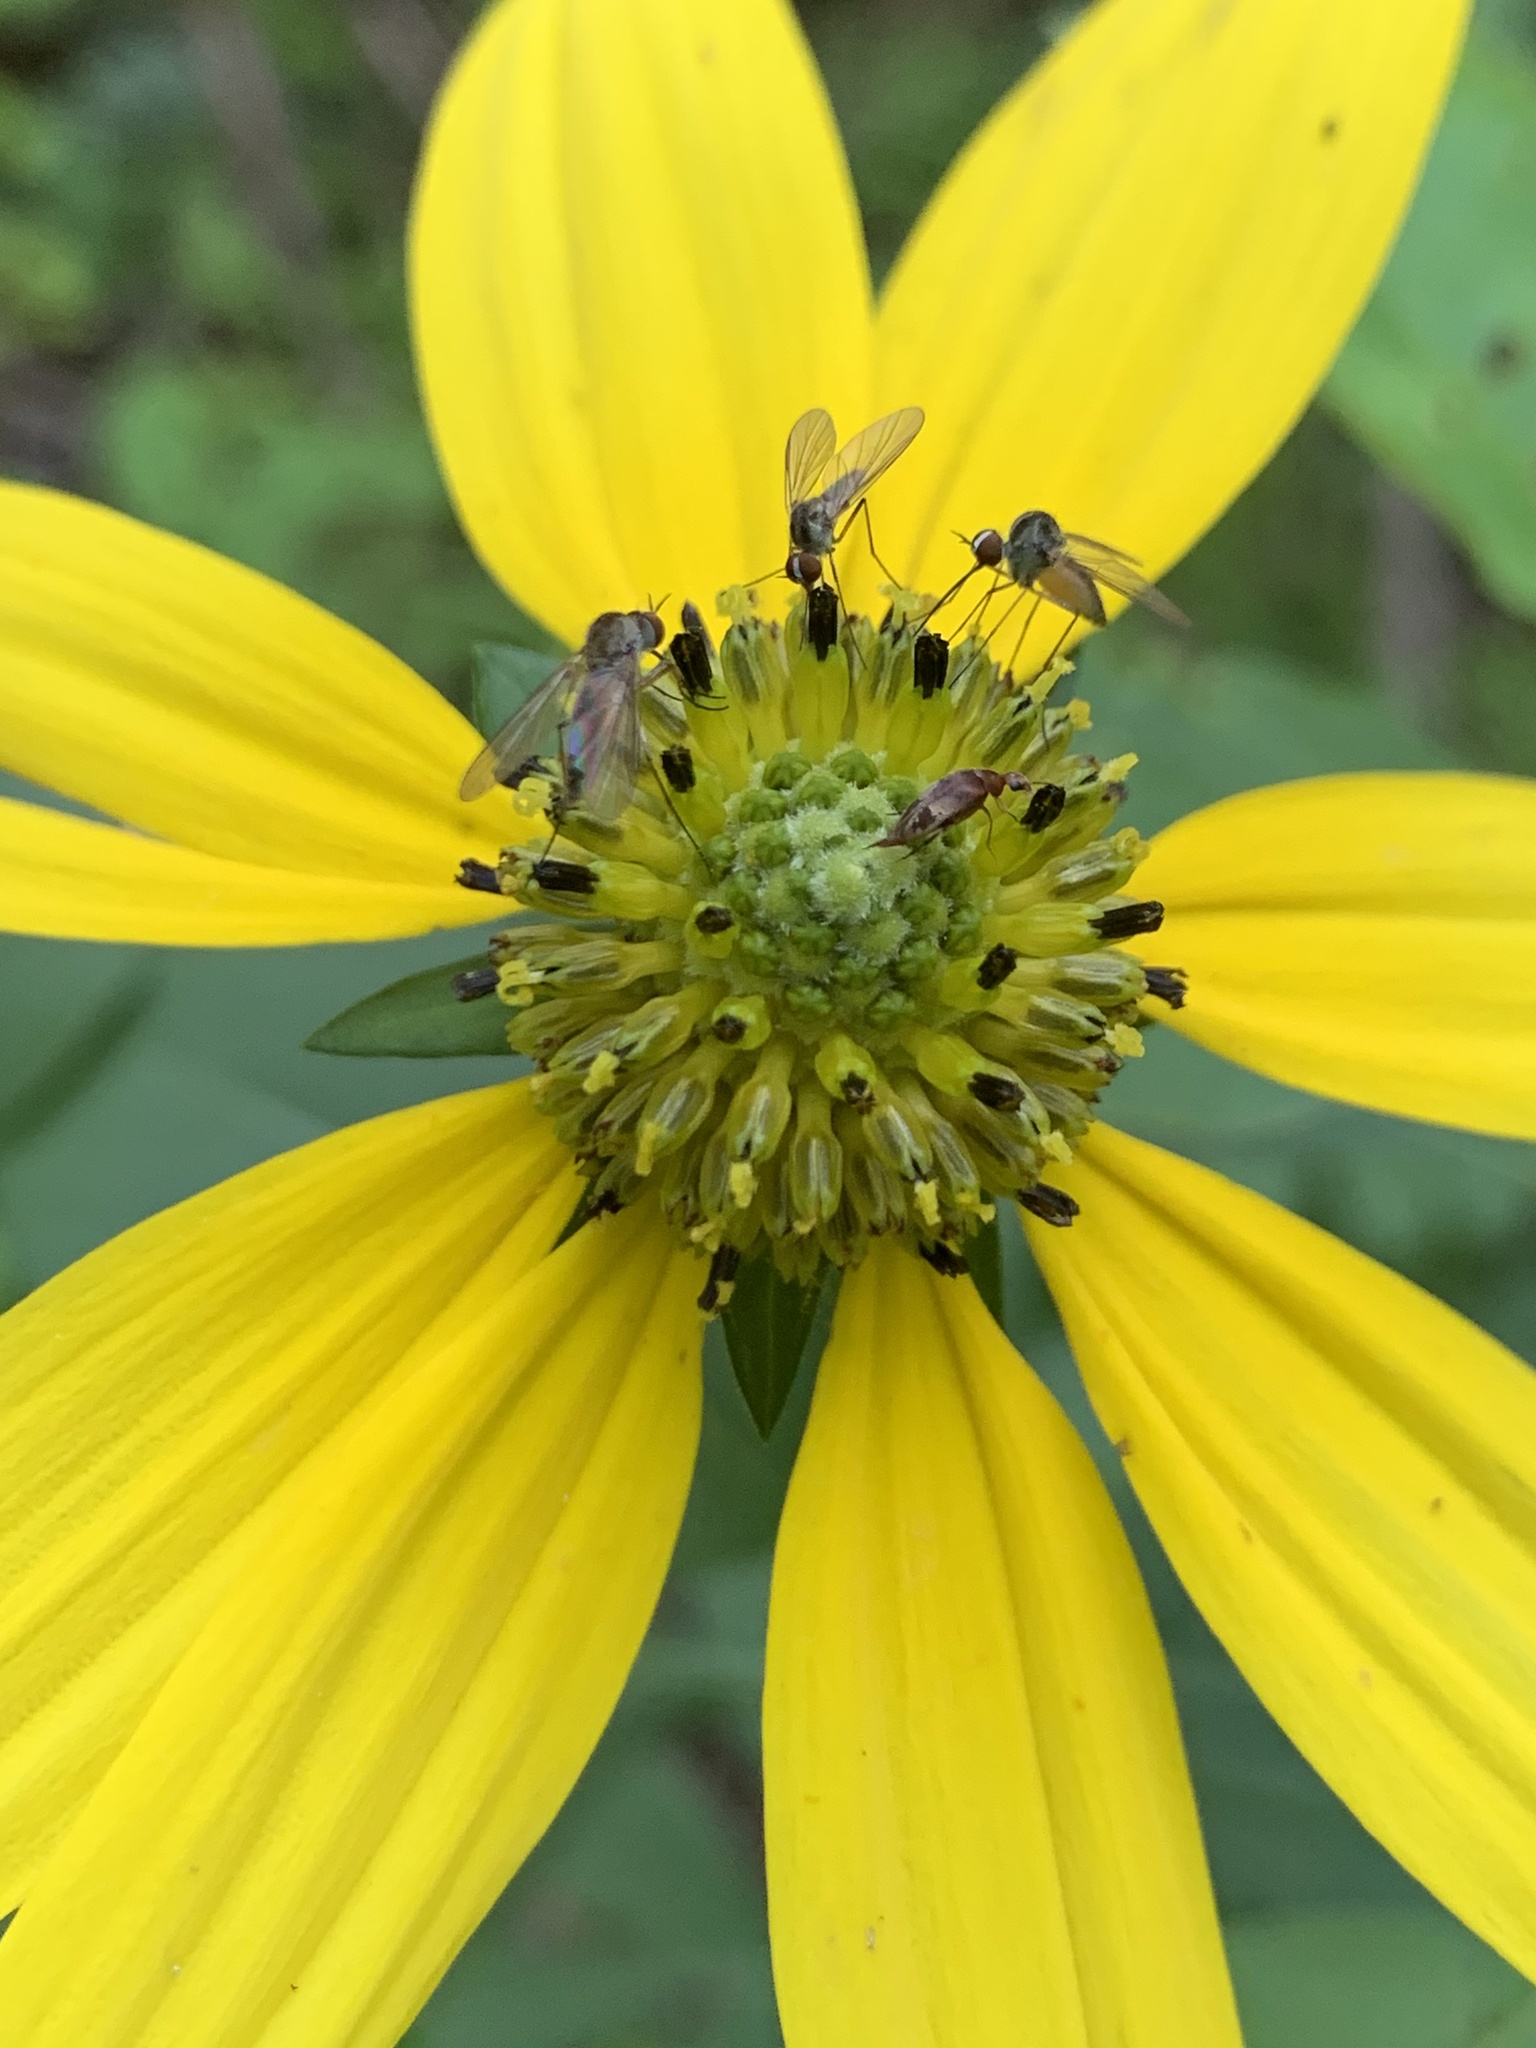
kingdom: Animalia
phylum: Arthropoda
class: Insecta
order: Diptera
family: Bombyliidae
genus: Geron
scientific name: Geron
